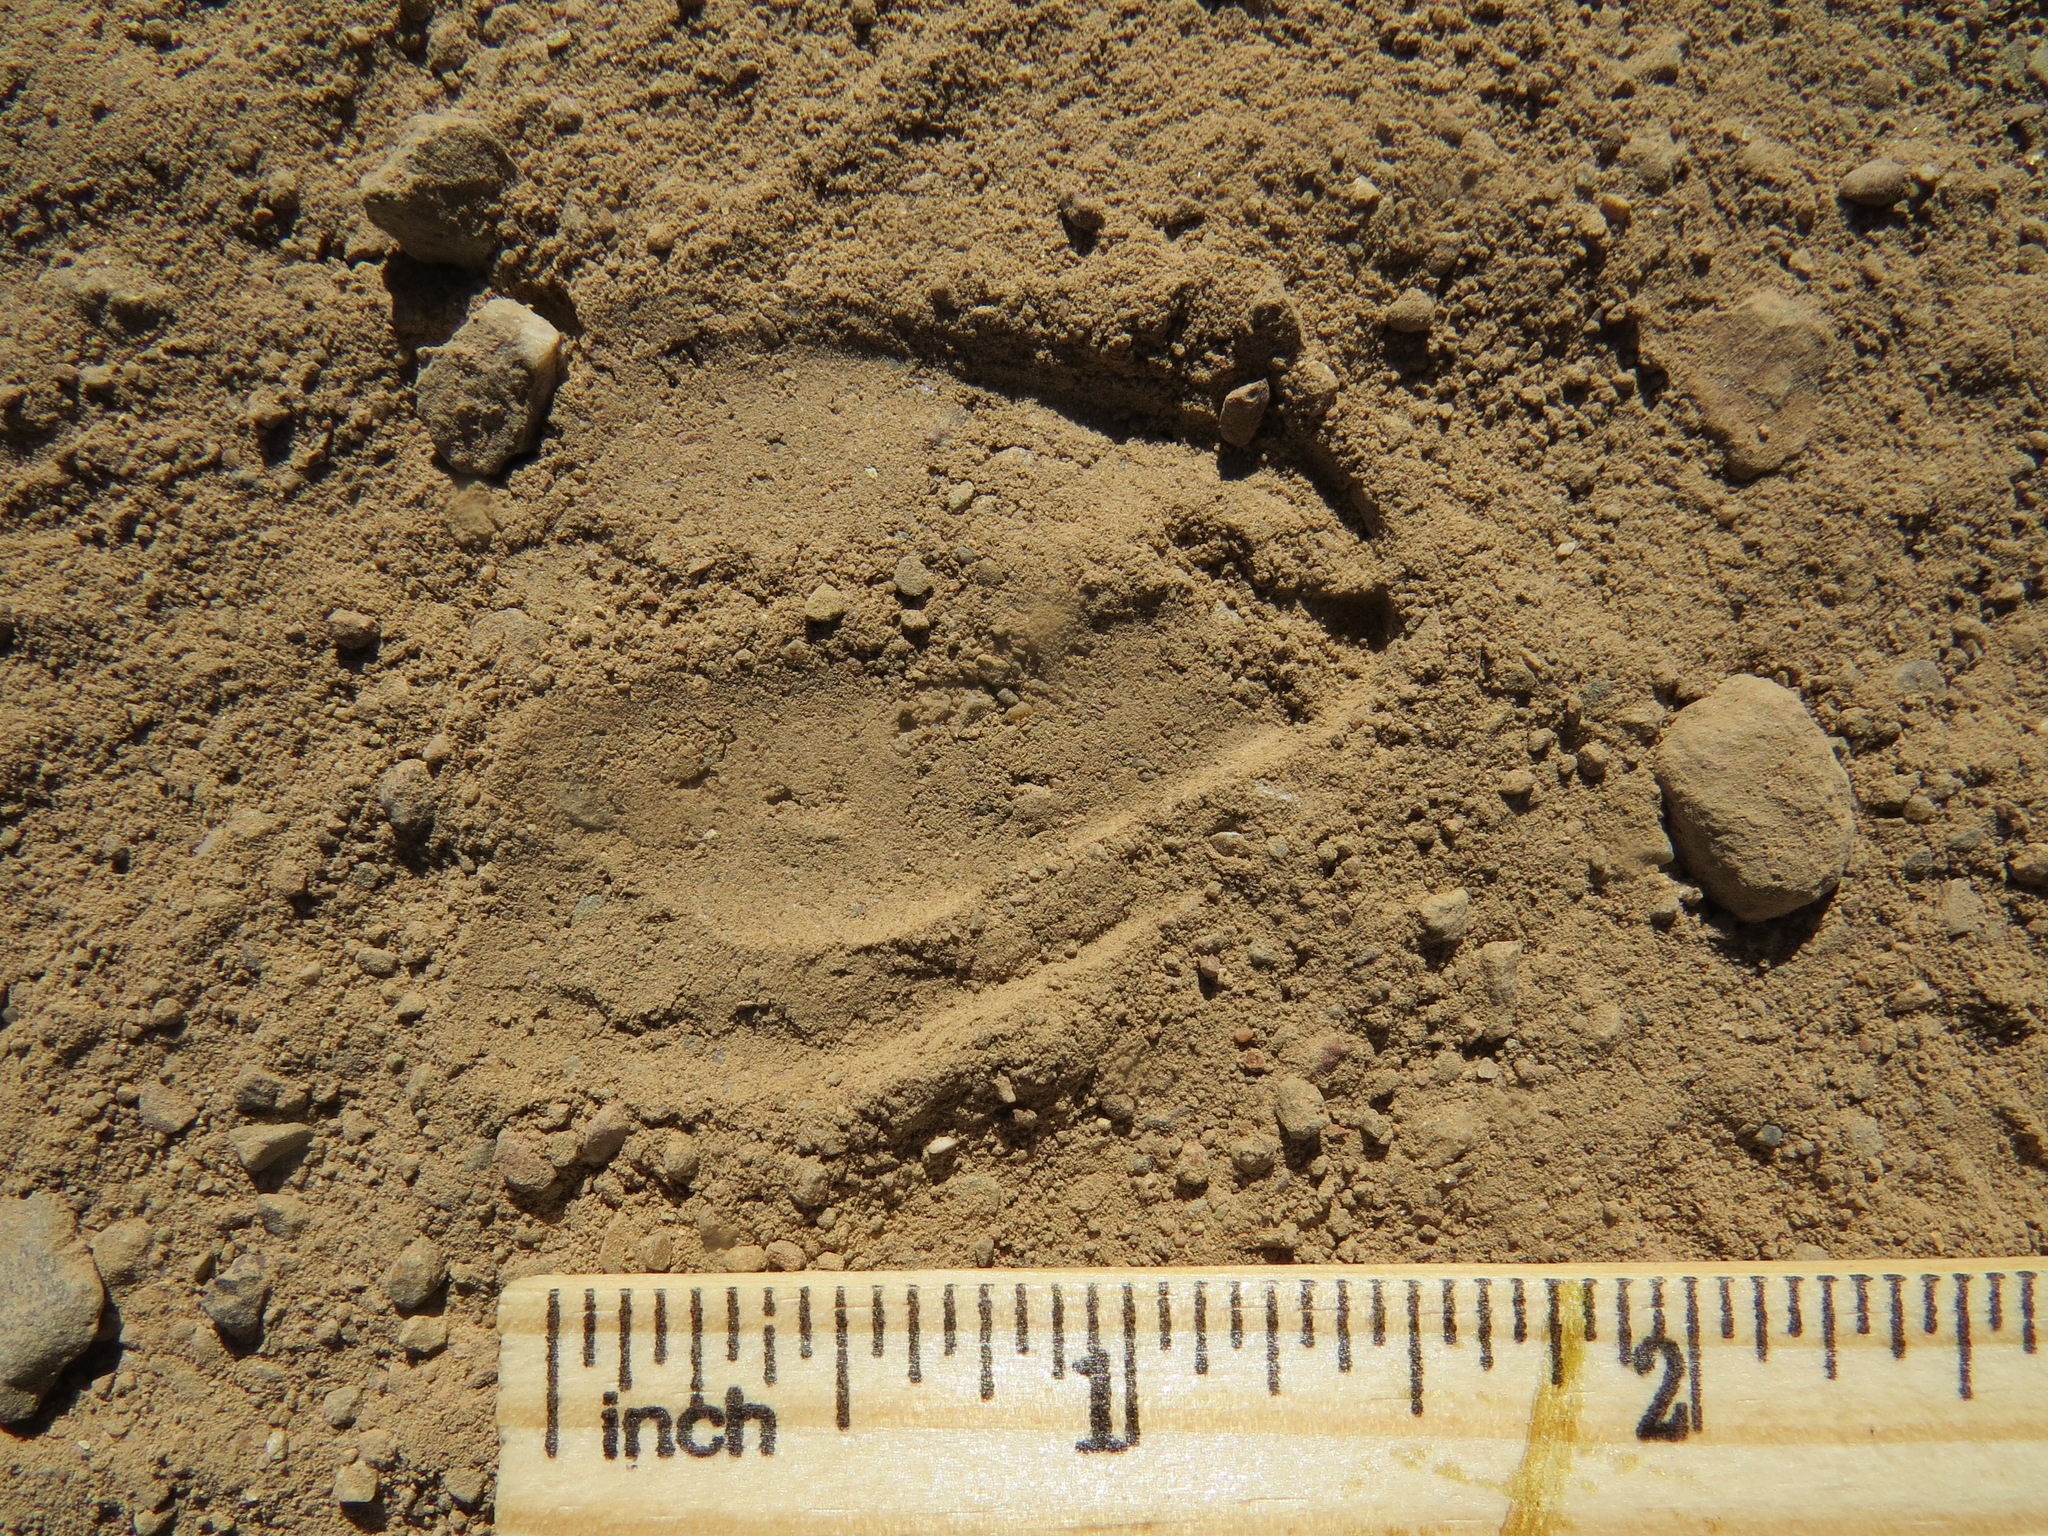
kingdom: Animalia
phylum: Chordata
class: Mammalia
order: Artiodactyla
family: Cervidae
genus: Odocoileus
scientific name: Odocoileus hemionus
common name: Mule deer
